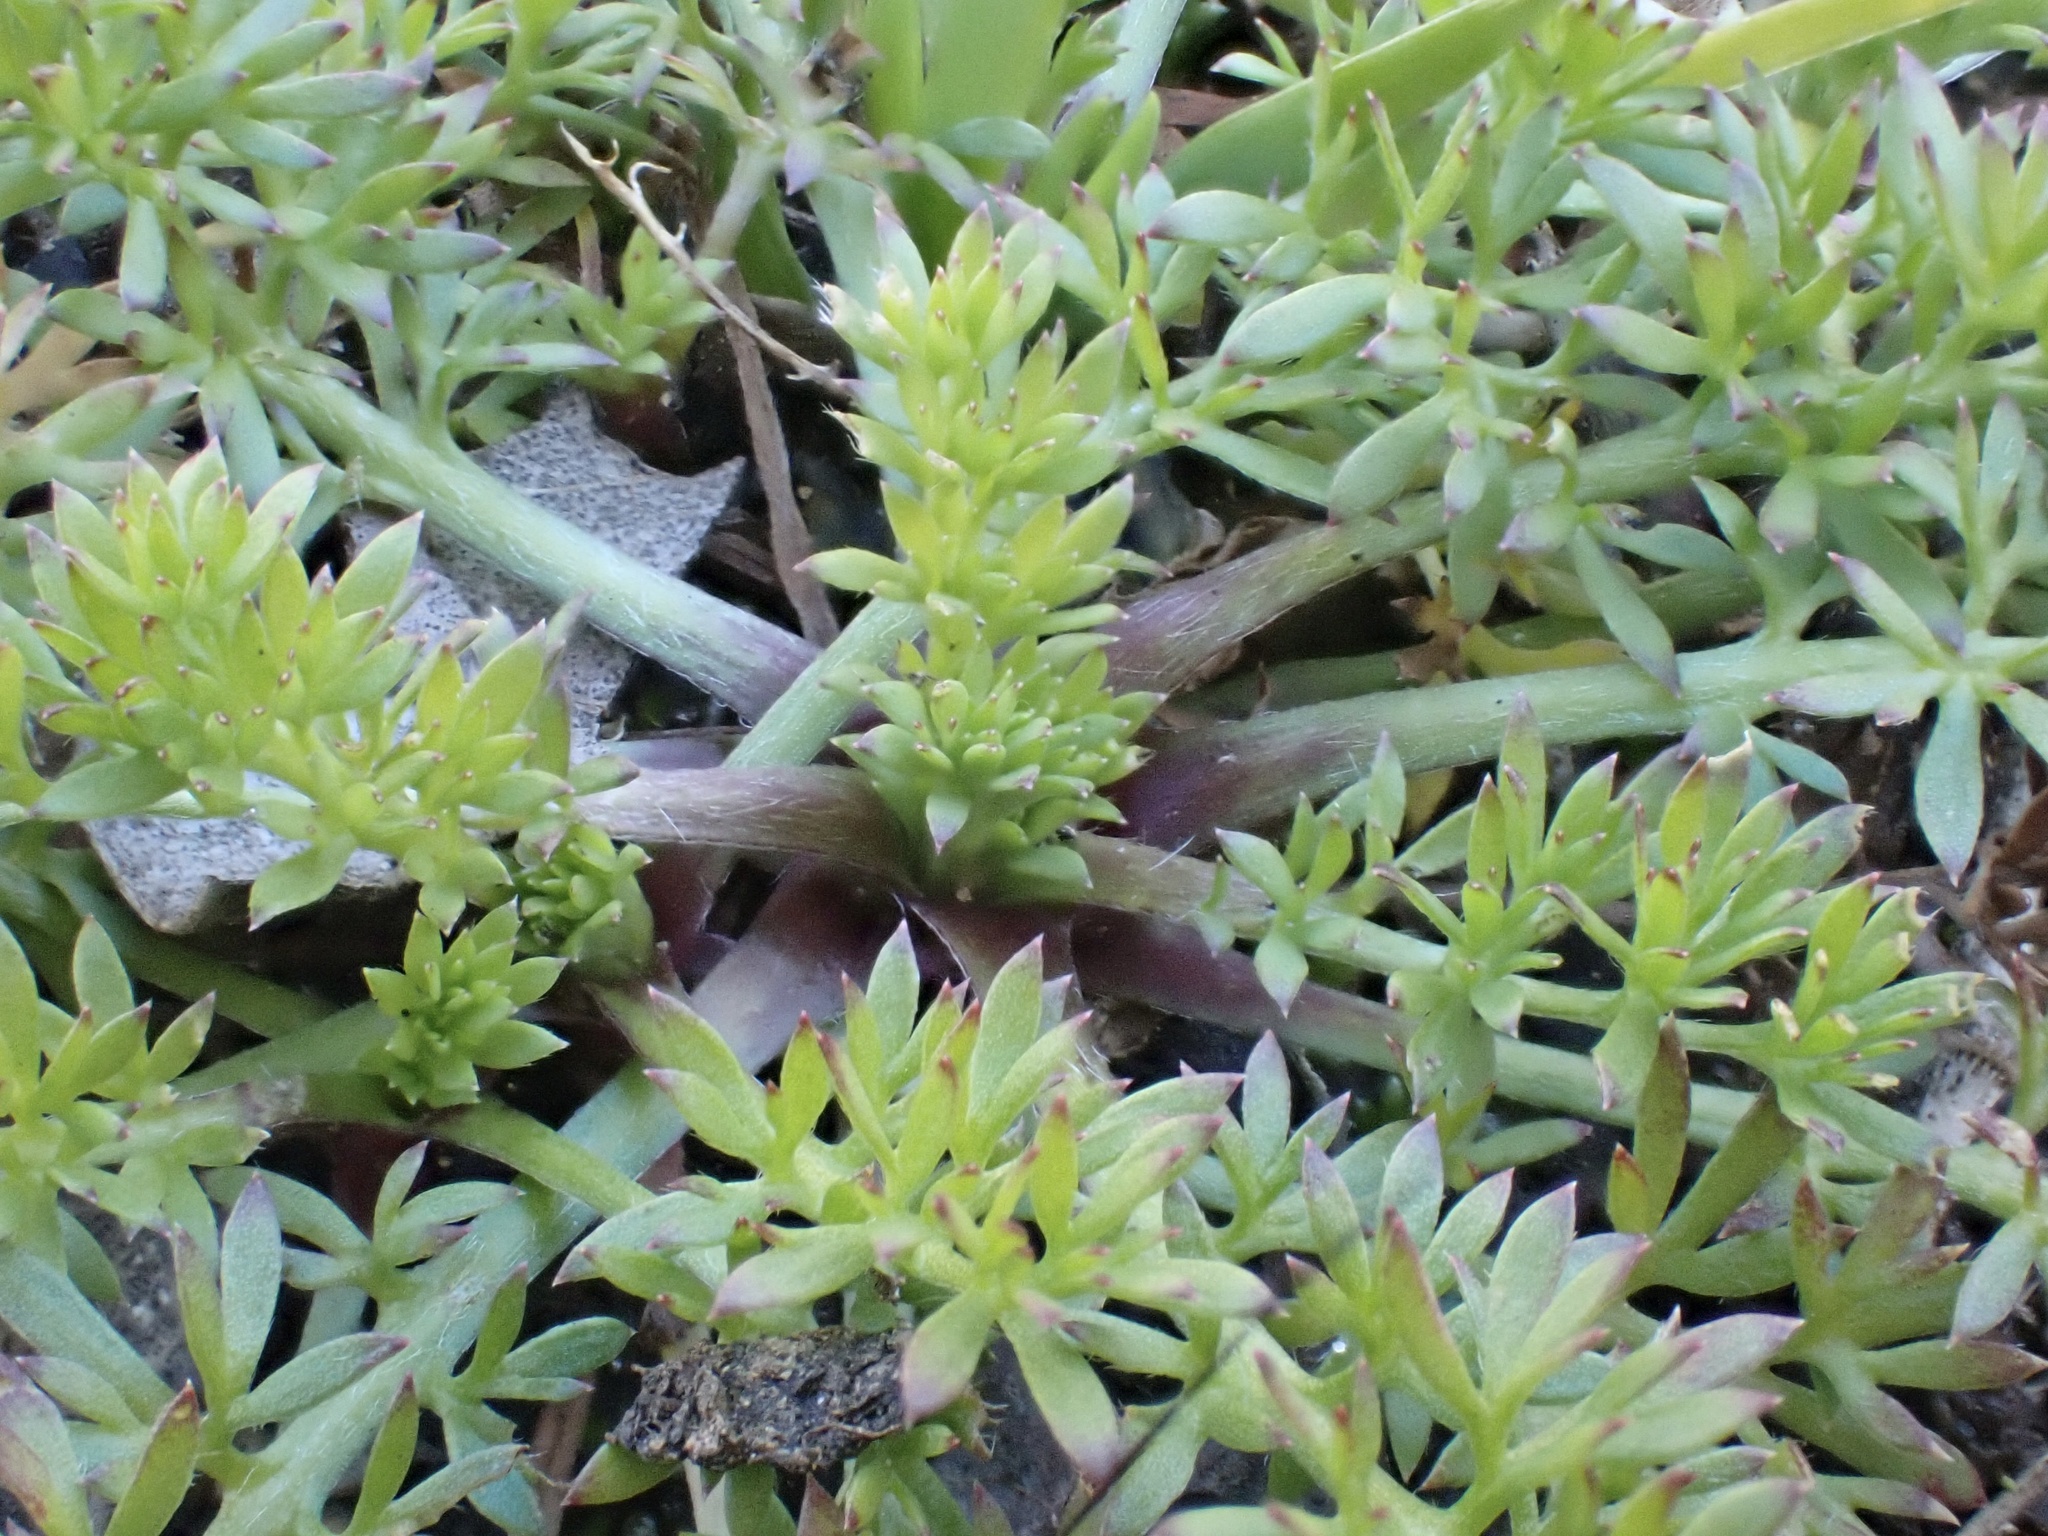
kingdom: Plantae
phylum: Tracheophyta
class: Magnoliopsida
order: Asterales
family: Asteraceae
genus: Soliva
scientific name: Soliva sessilis
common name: Field burrweed
